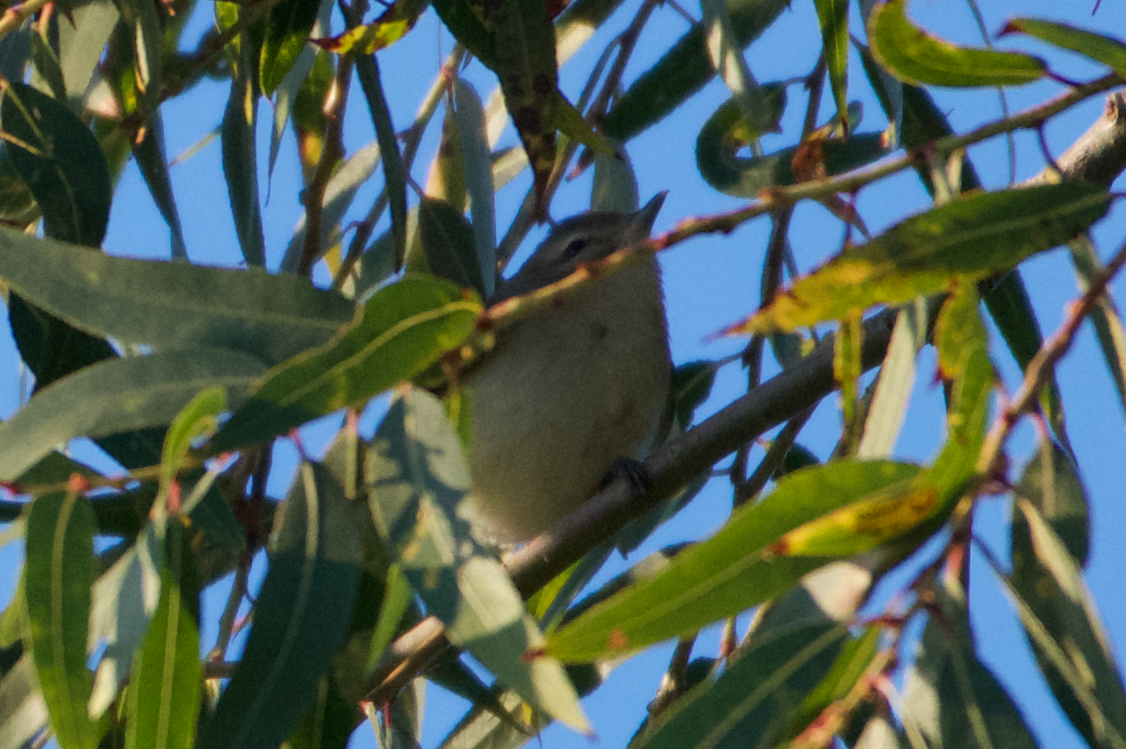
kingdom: Animalia
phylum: Chordata
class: Aves
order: Passeriformes
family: Vireonidae
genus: Vireo
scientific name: Vireo gilvus
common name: Warbling vireo
